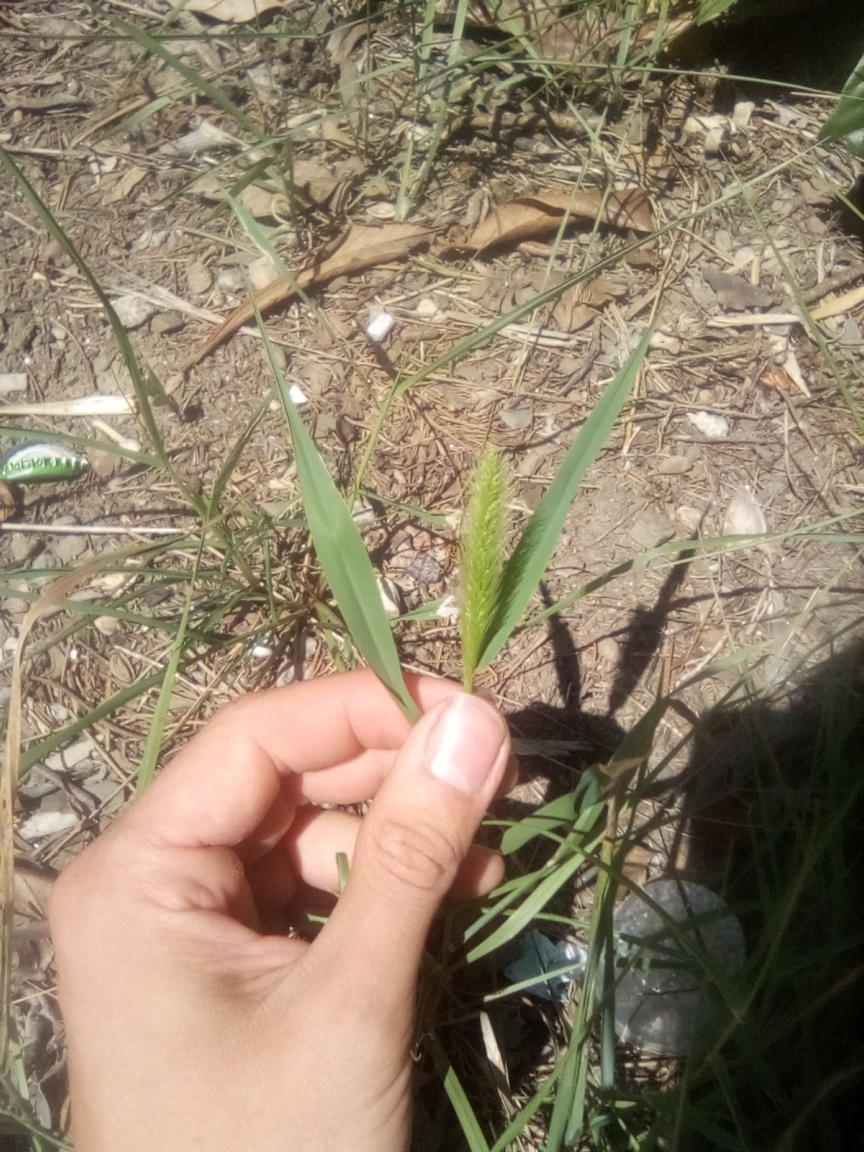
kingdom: Plantae
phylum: Tracheophyta
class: Liliopsida
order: Poales
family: Poaceae
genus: Setaria
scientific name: Setaria viridis
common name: Green bristlegrass
